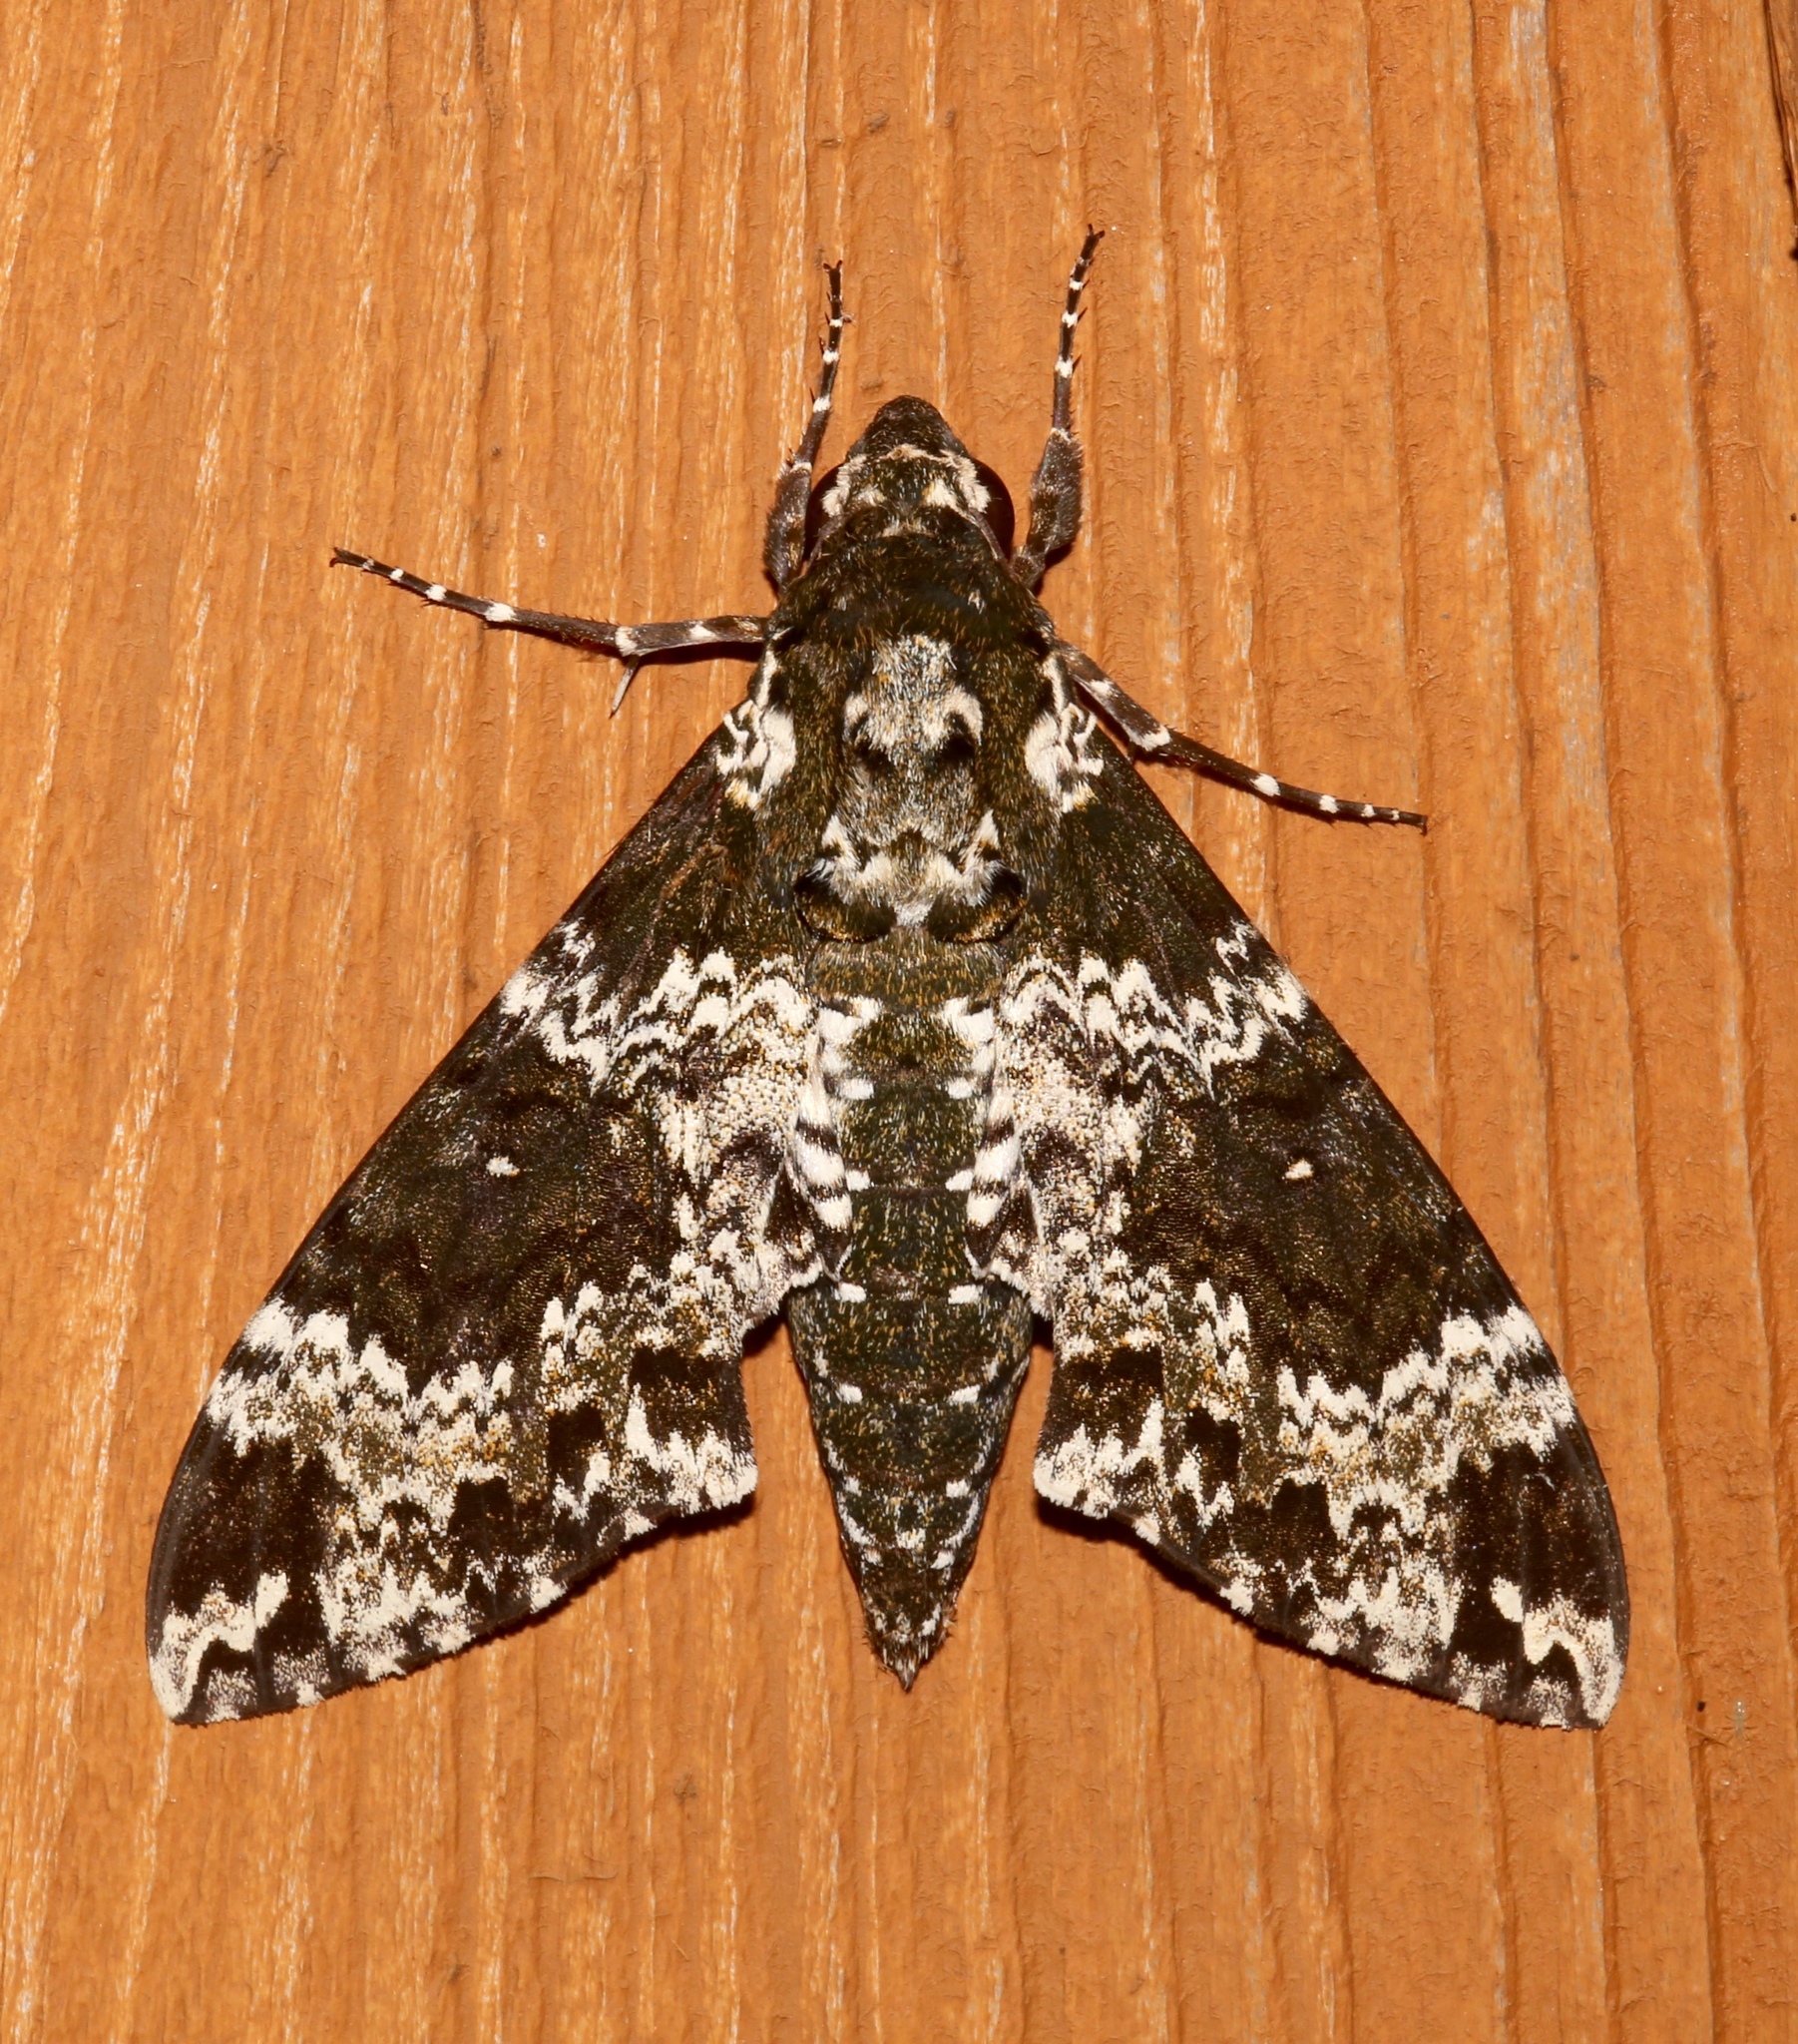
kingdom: Animalia
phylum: Arthropoda
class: Insecta
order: Lepidoptera
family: Sphingidae
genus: Manduca
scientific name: Manduca rustica
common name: Rustic sphinx
